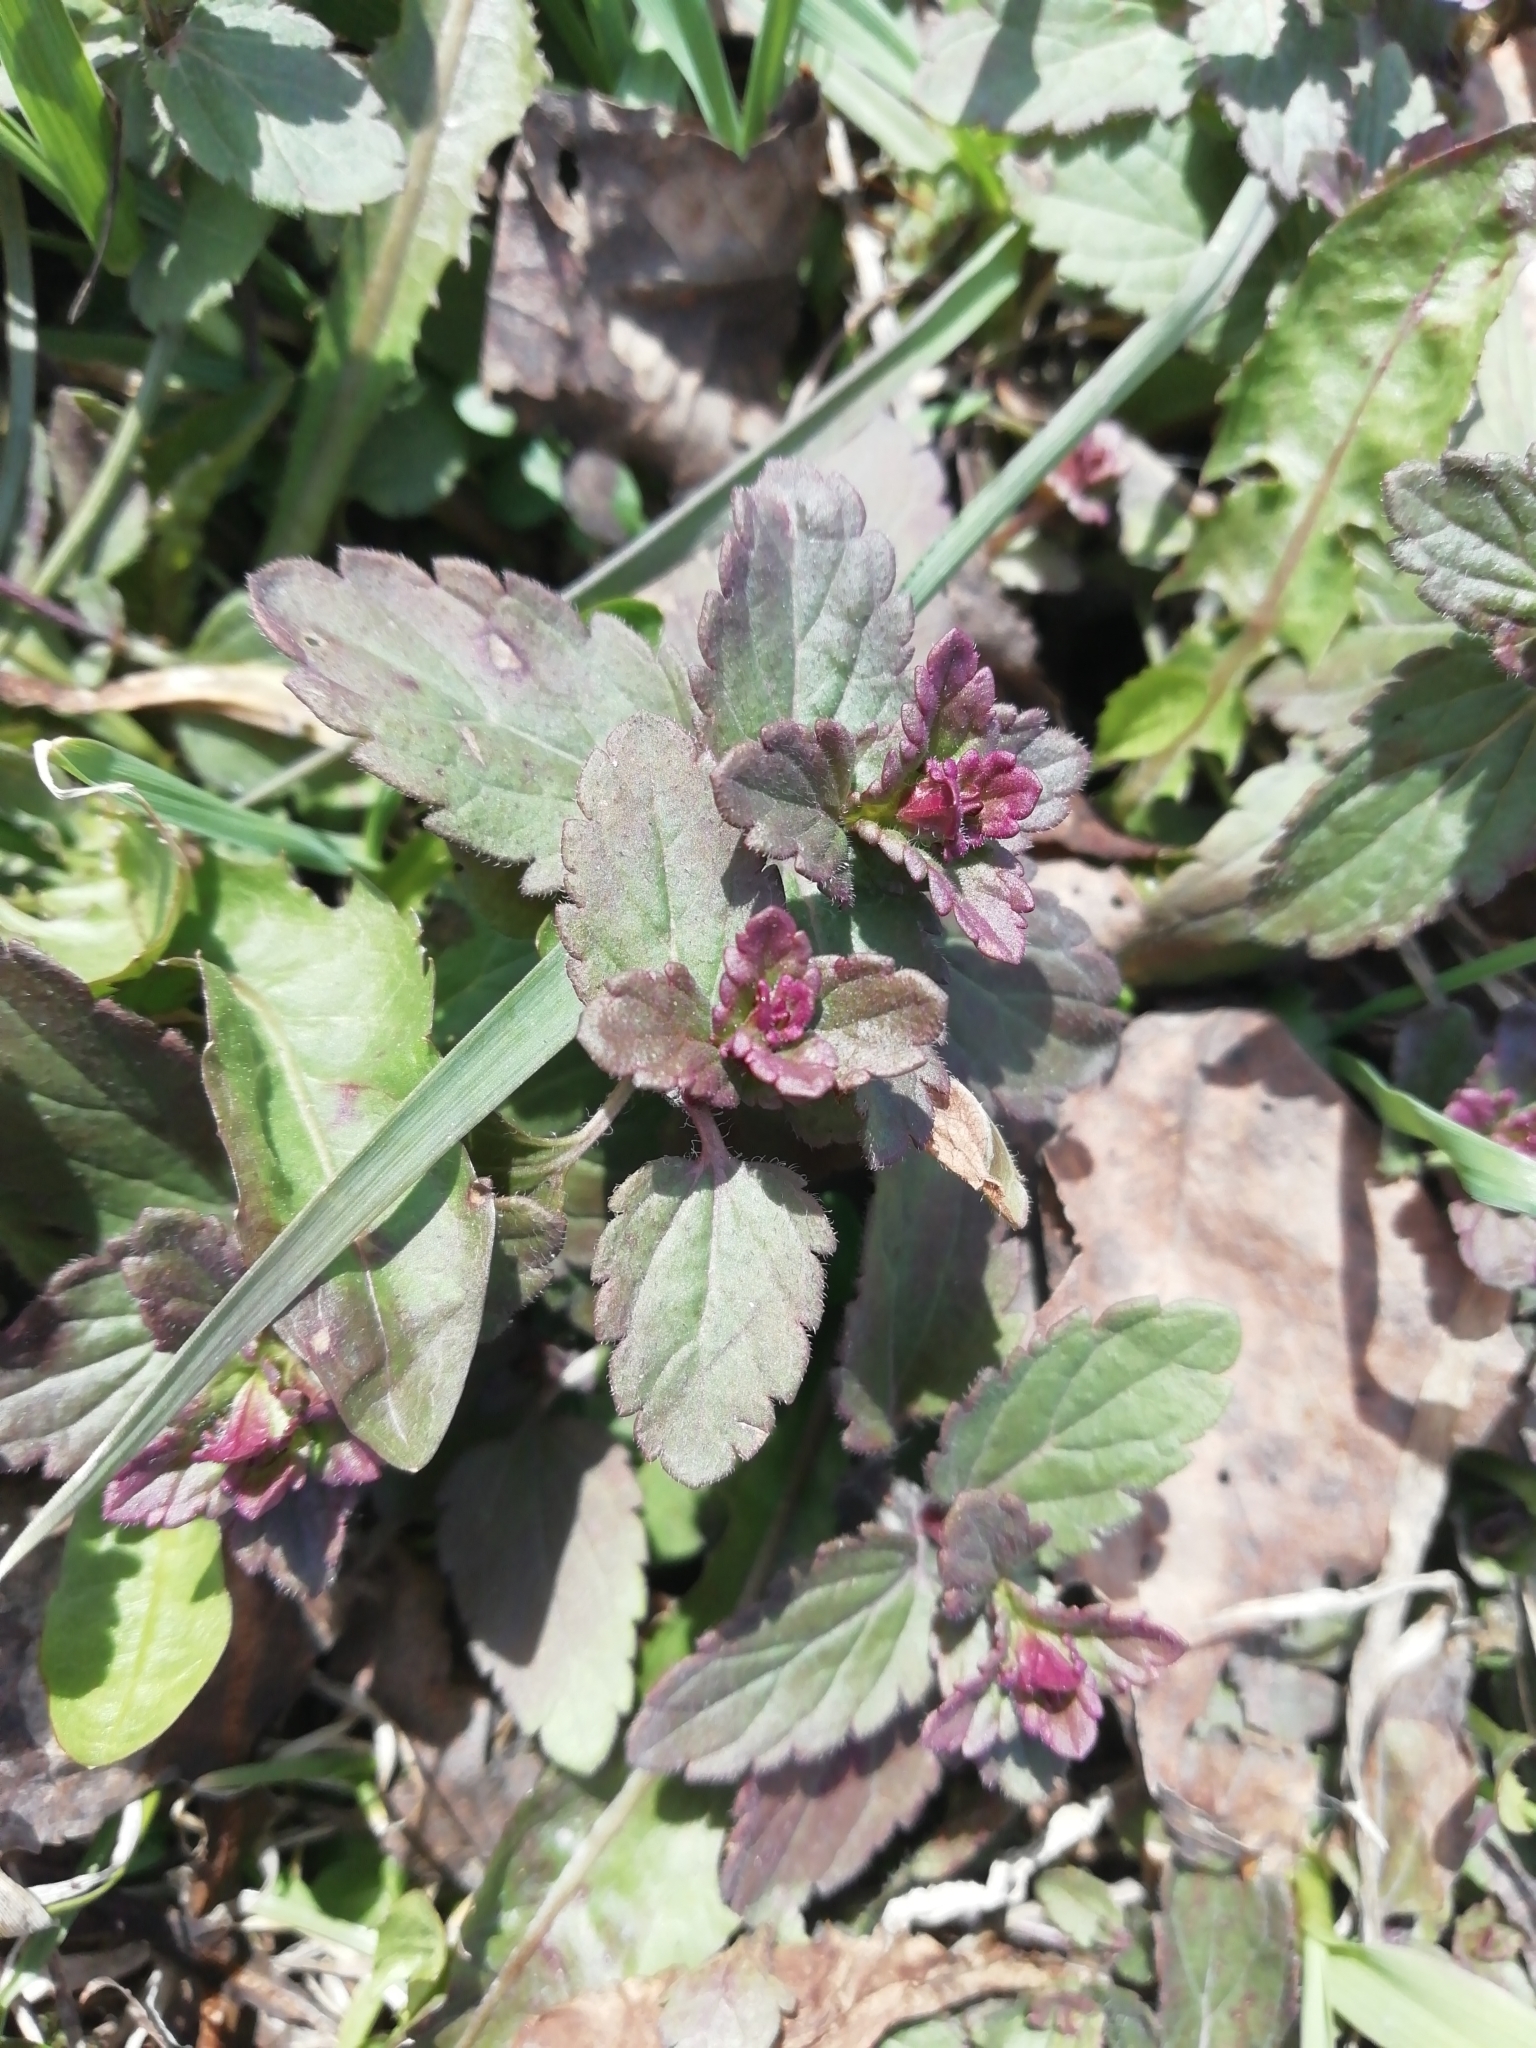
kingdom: Plantae
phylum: Tracheophyta
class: Magnoliopsida
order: Lamiales
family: Plantaginaceae
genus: Veronica
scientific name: Veronica chamaedrys
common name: Germander speedwell
